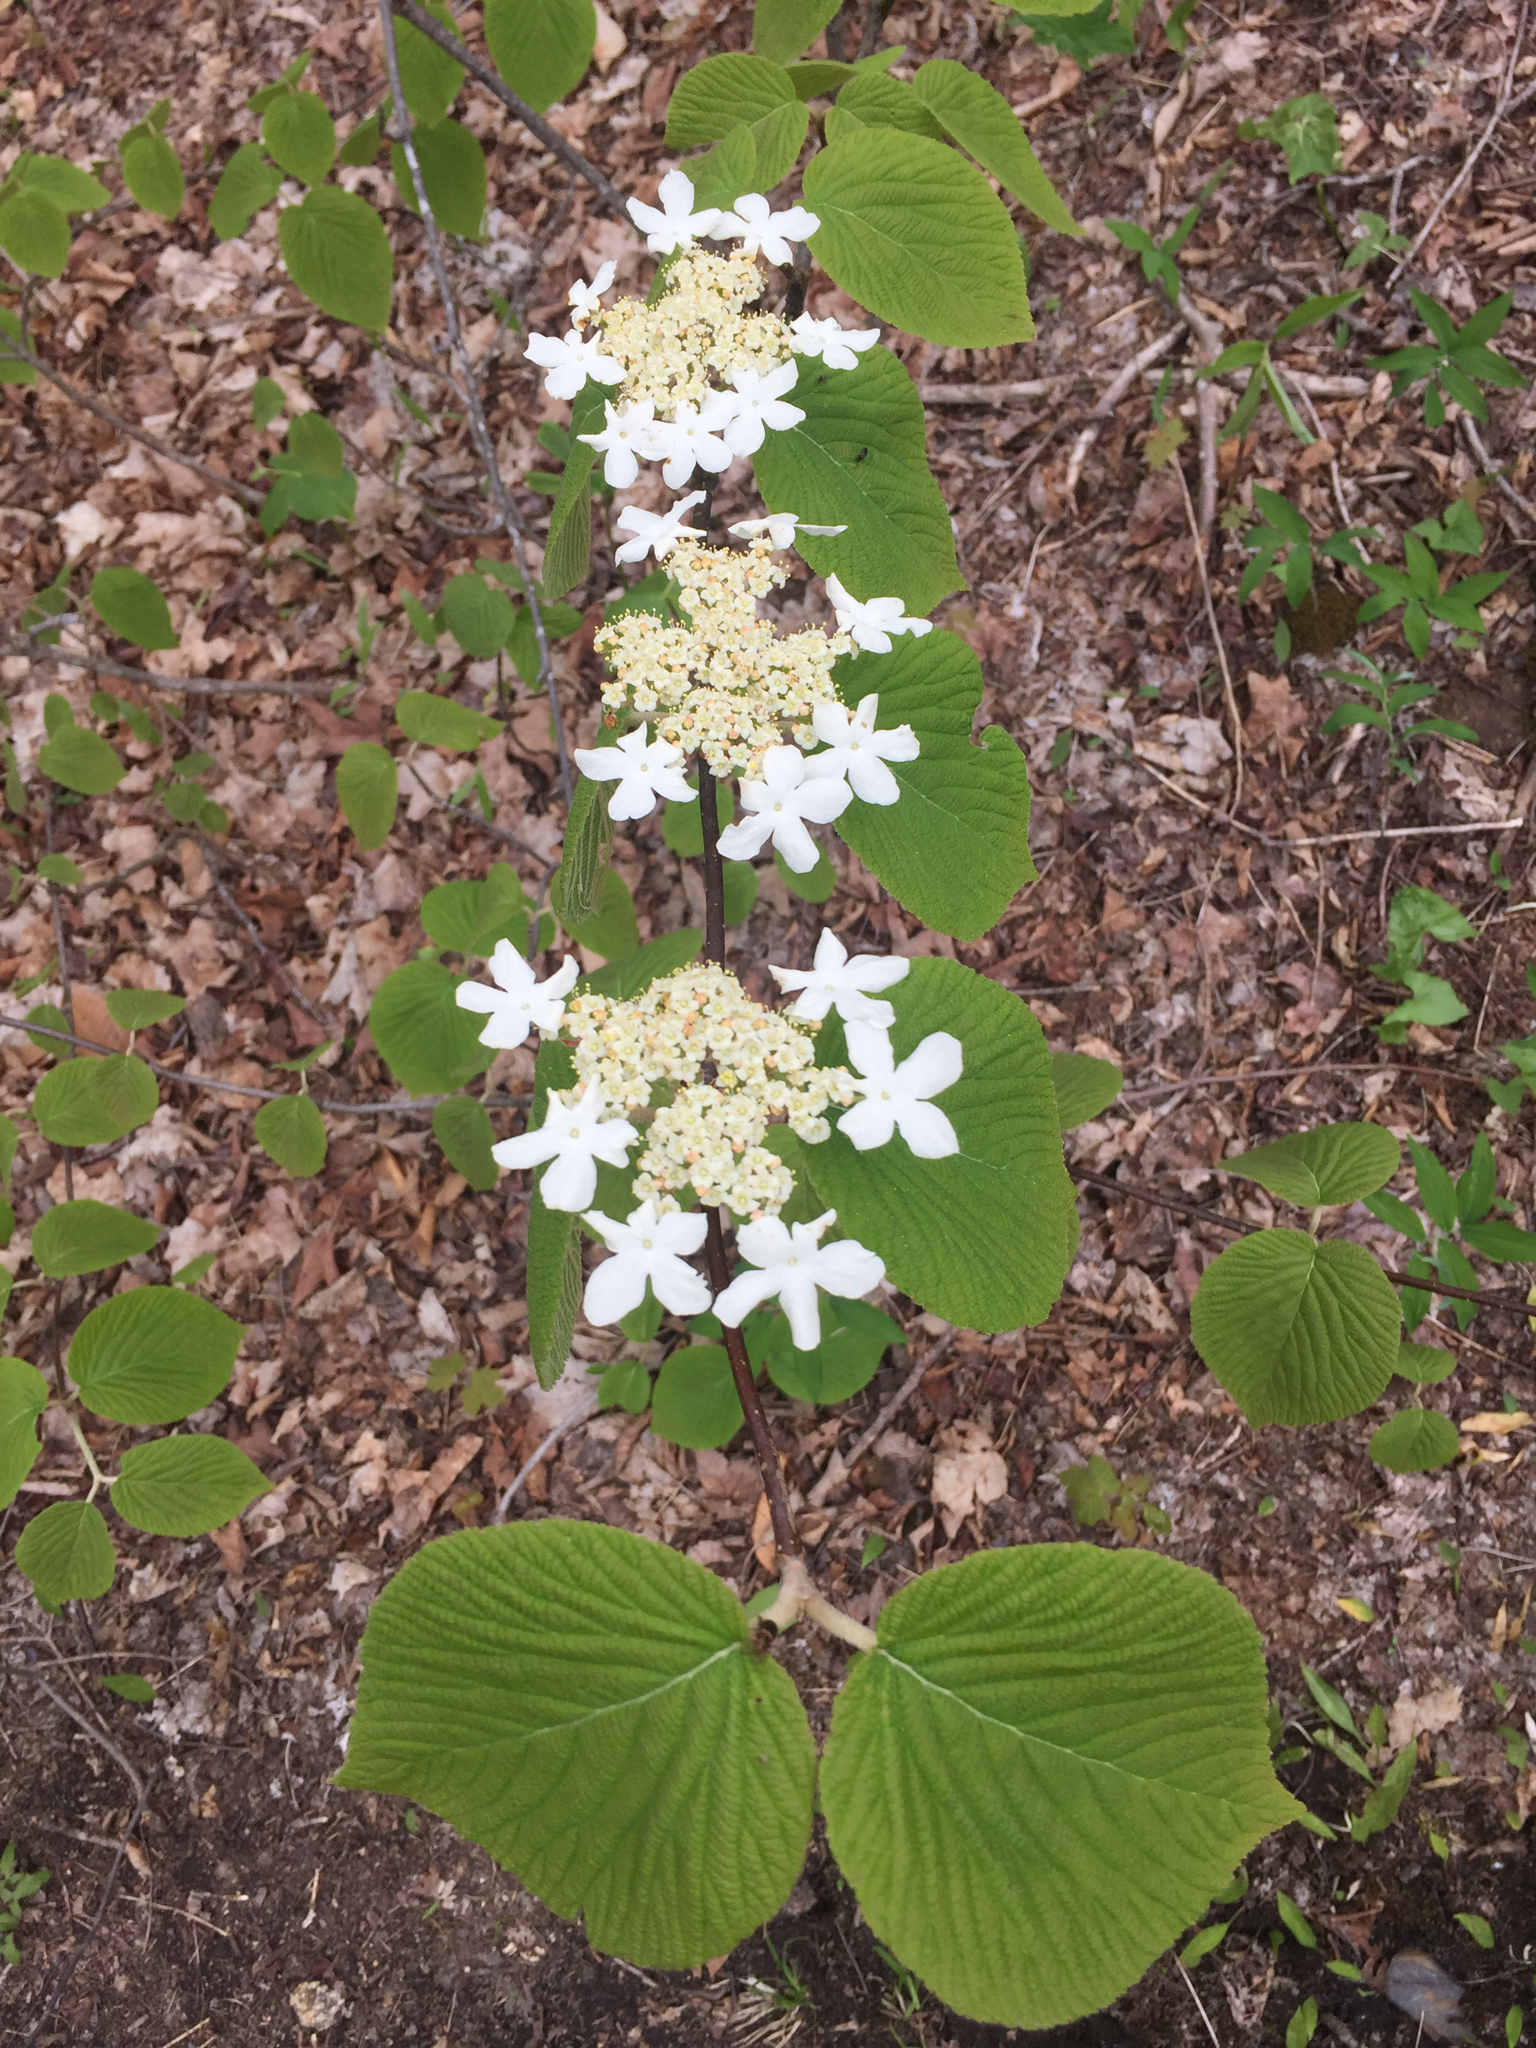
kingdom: Plantae
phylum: Tracheophyta
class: Magnoliopsida
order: Dipsacales
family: Viburnaceae
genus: Viburnum
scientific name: Viburnum lantanoides
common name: Hobblebush
